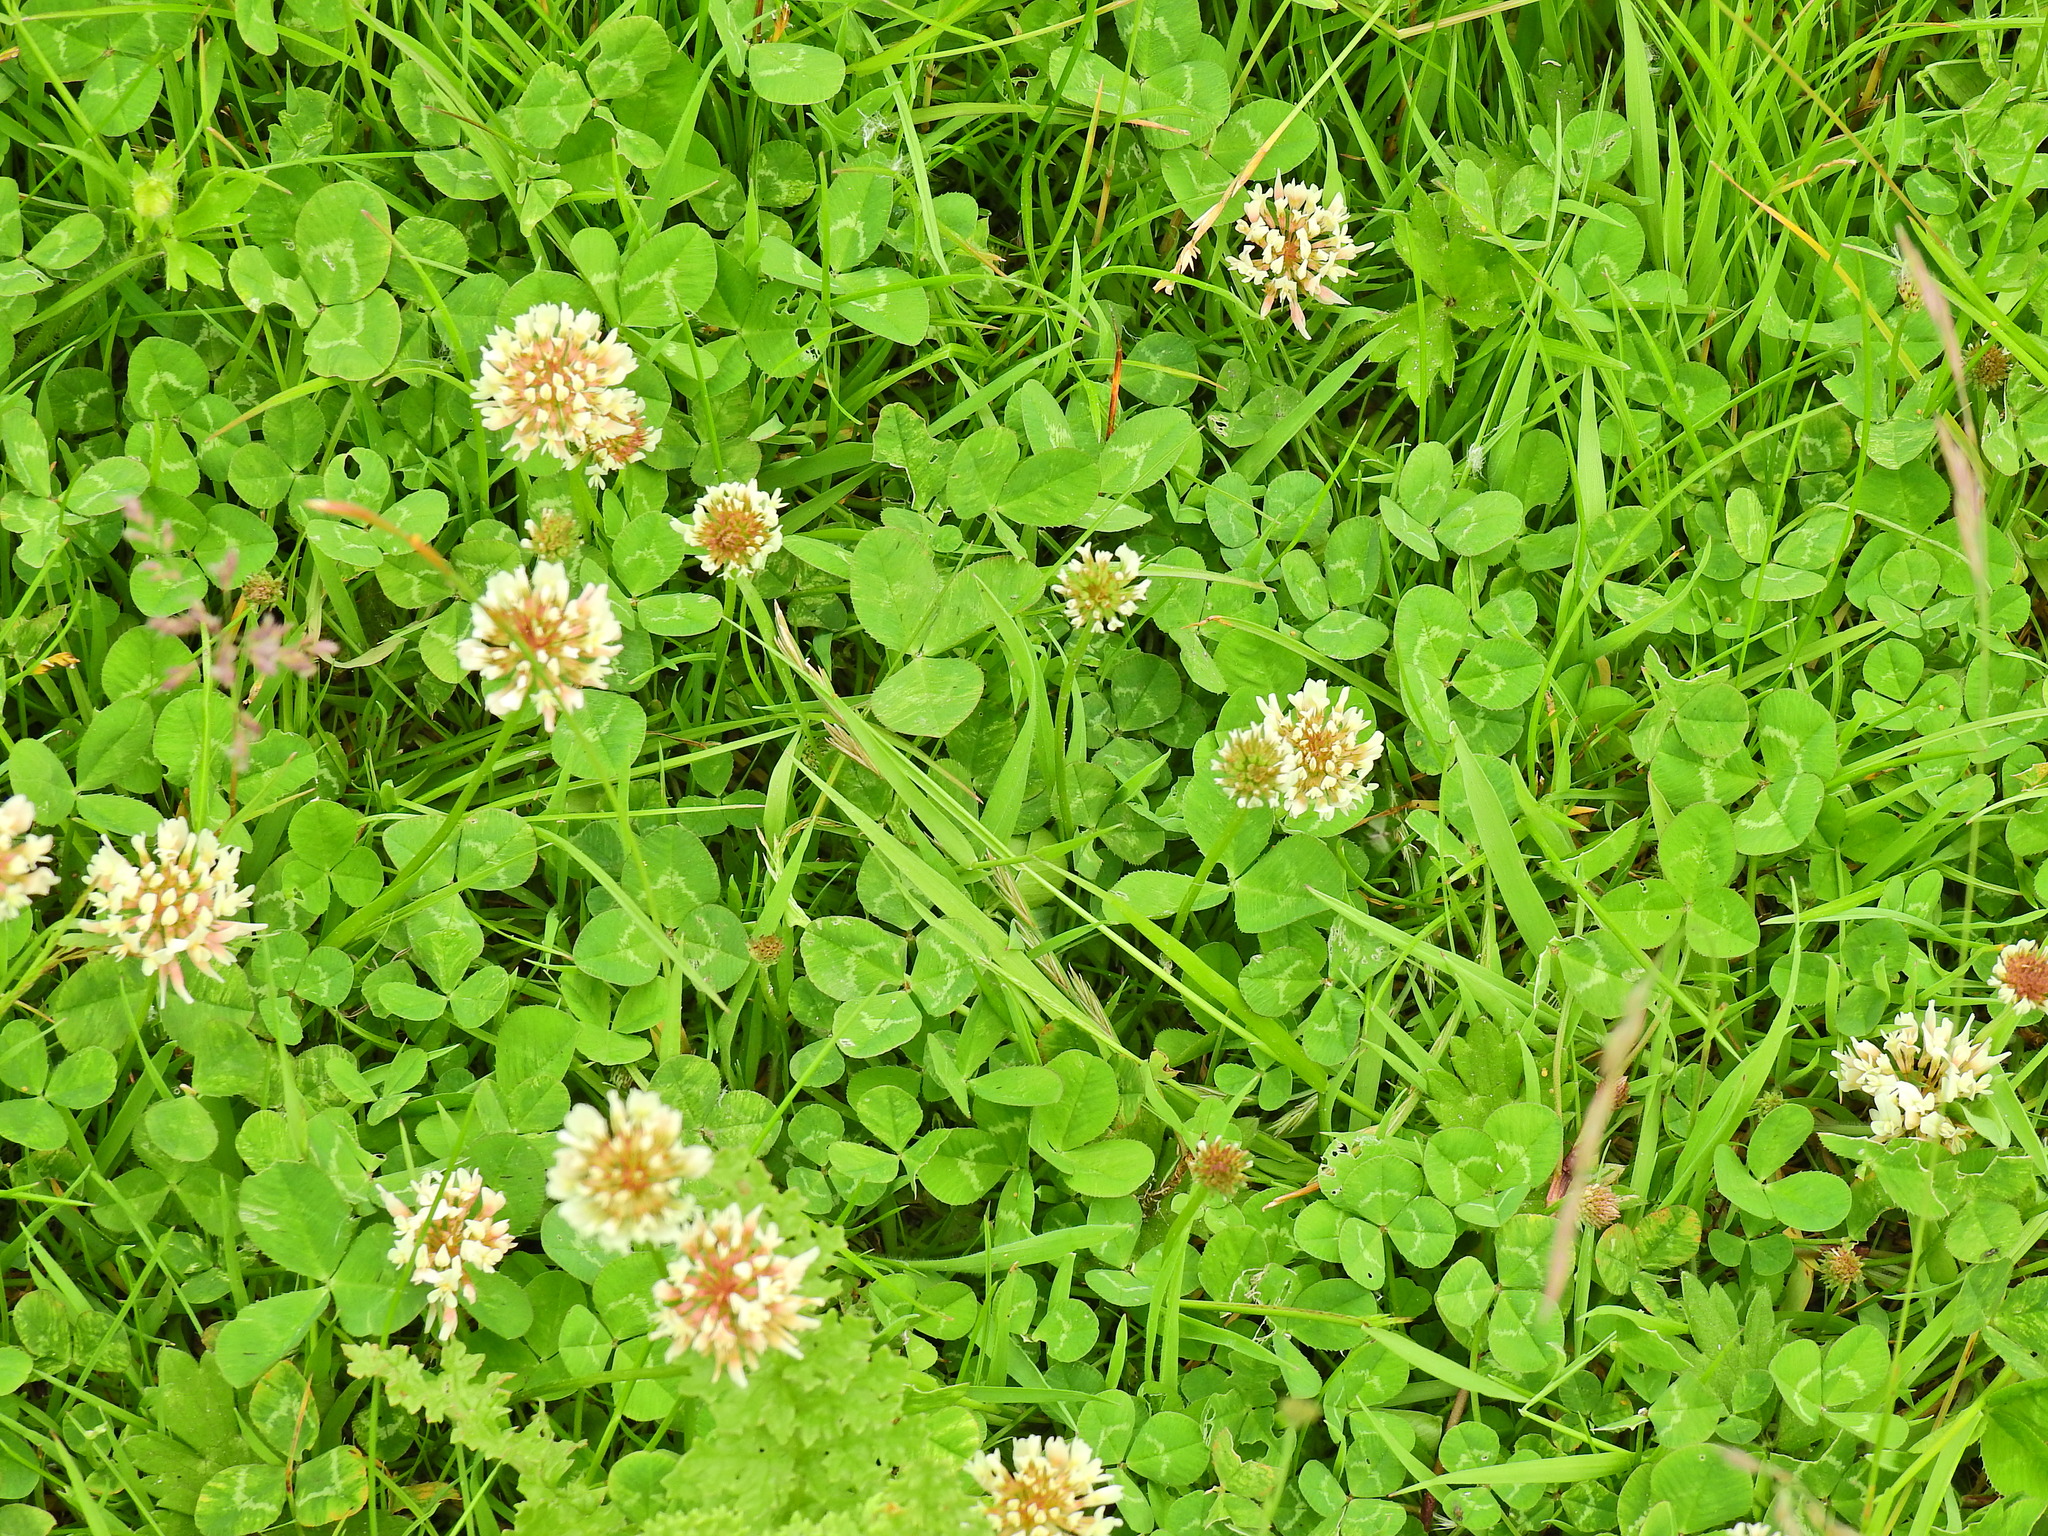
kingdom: Plantae
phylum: Tracheophyta
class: Magnoliopsida
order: Fabales
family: Fabaceae
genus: Trifolium
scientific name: Trifolium repens
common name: White clover
